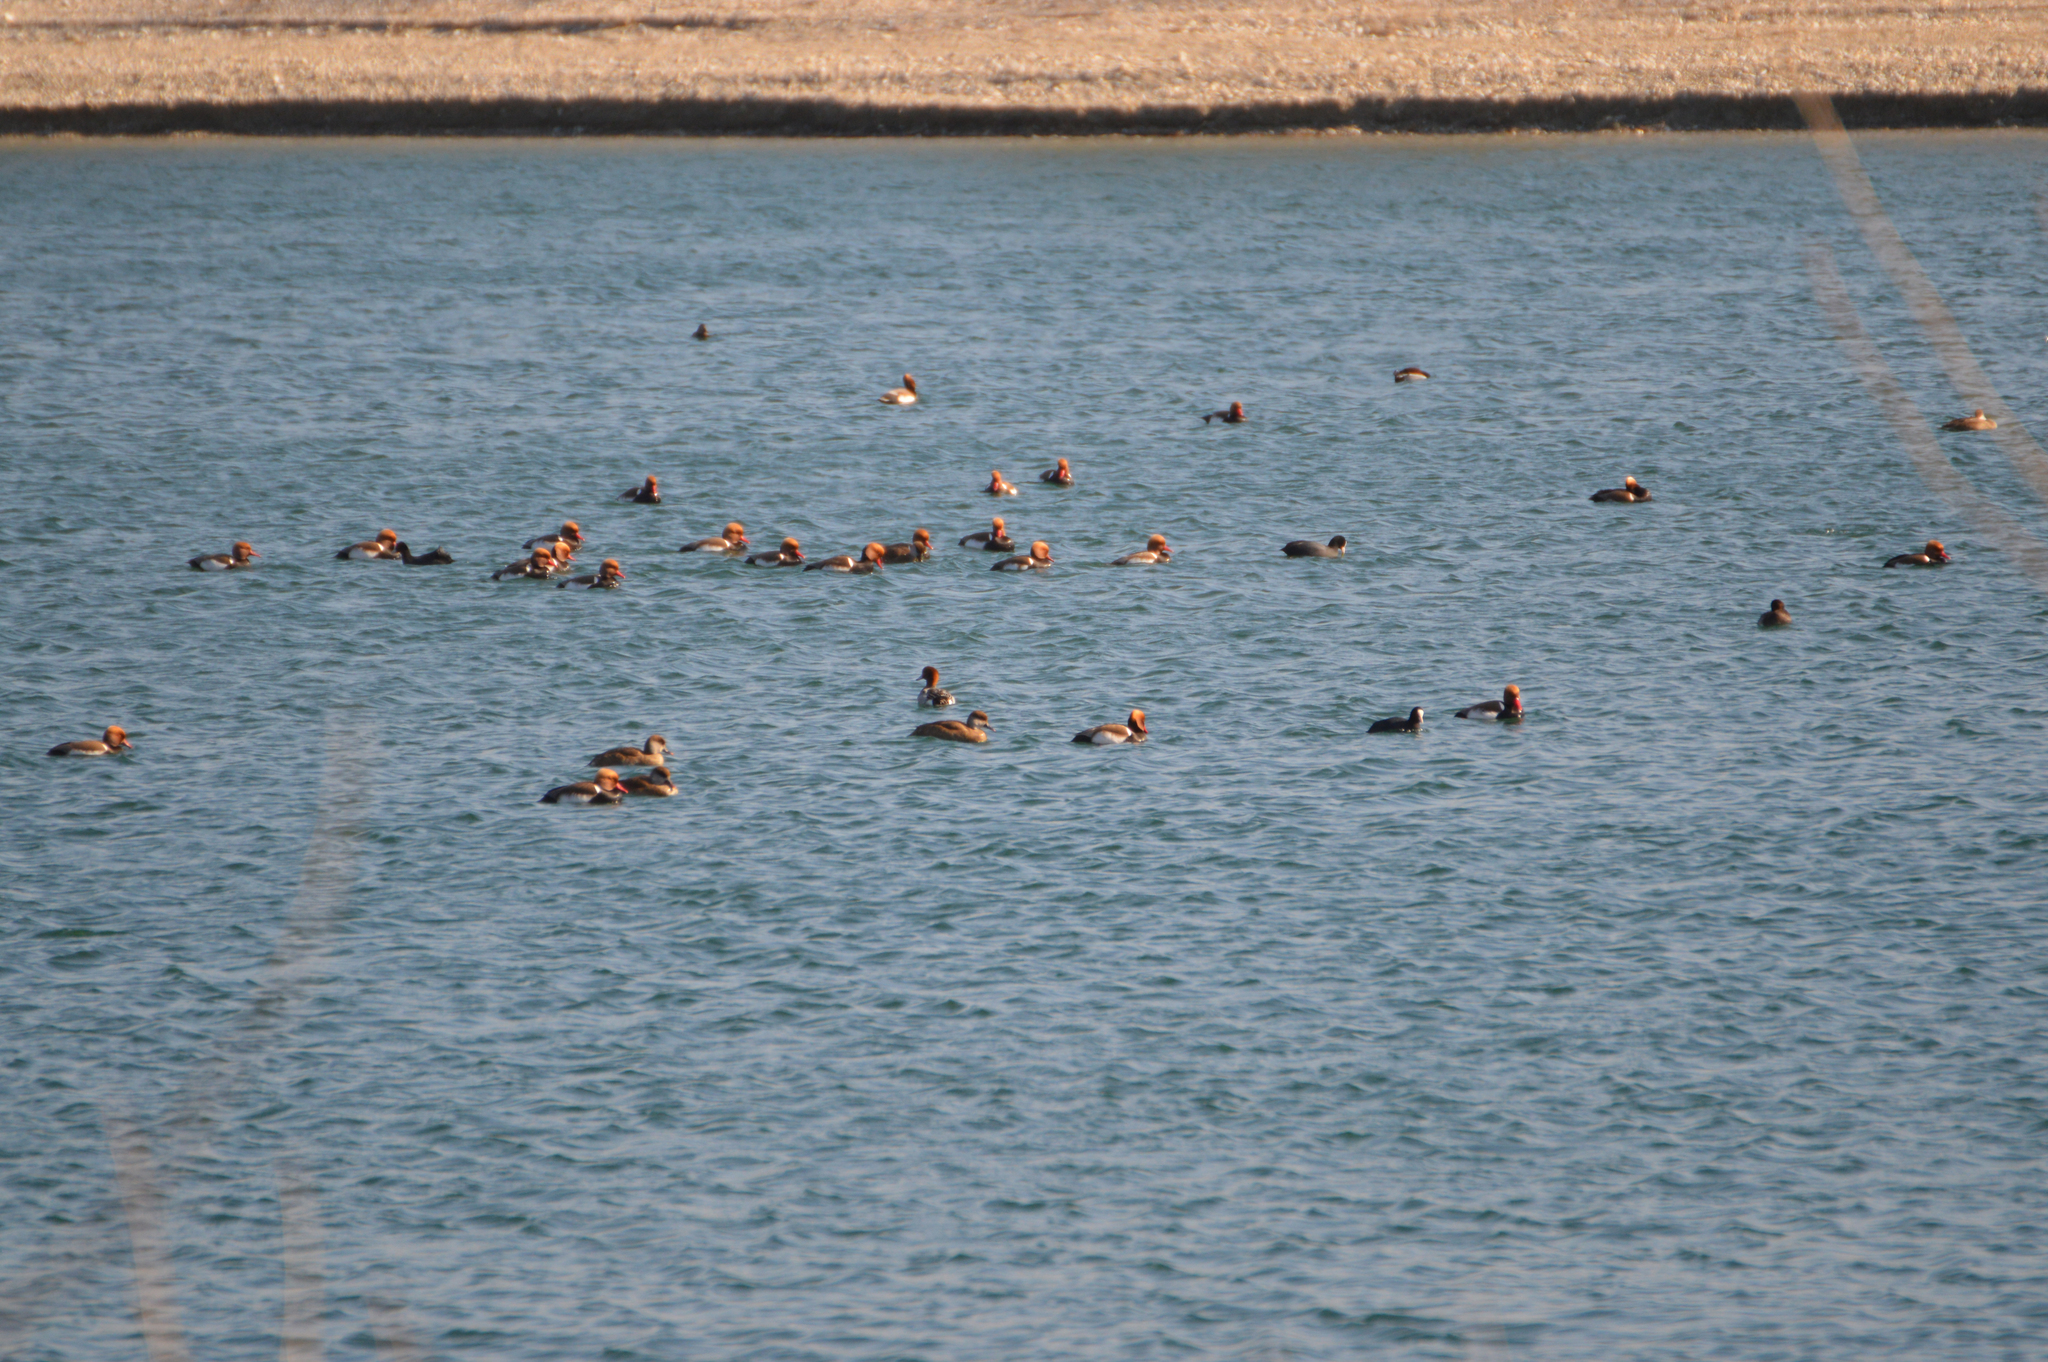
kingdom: Animalia
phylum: Chordata
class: Aves
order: Anseriformes
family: Anatidae
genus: Netta
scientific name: Netta rufina
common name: Red-crested pochard
